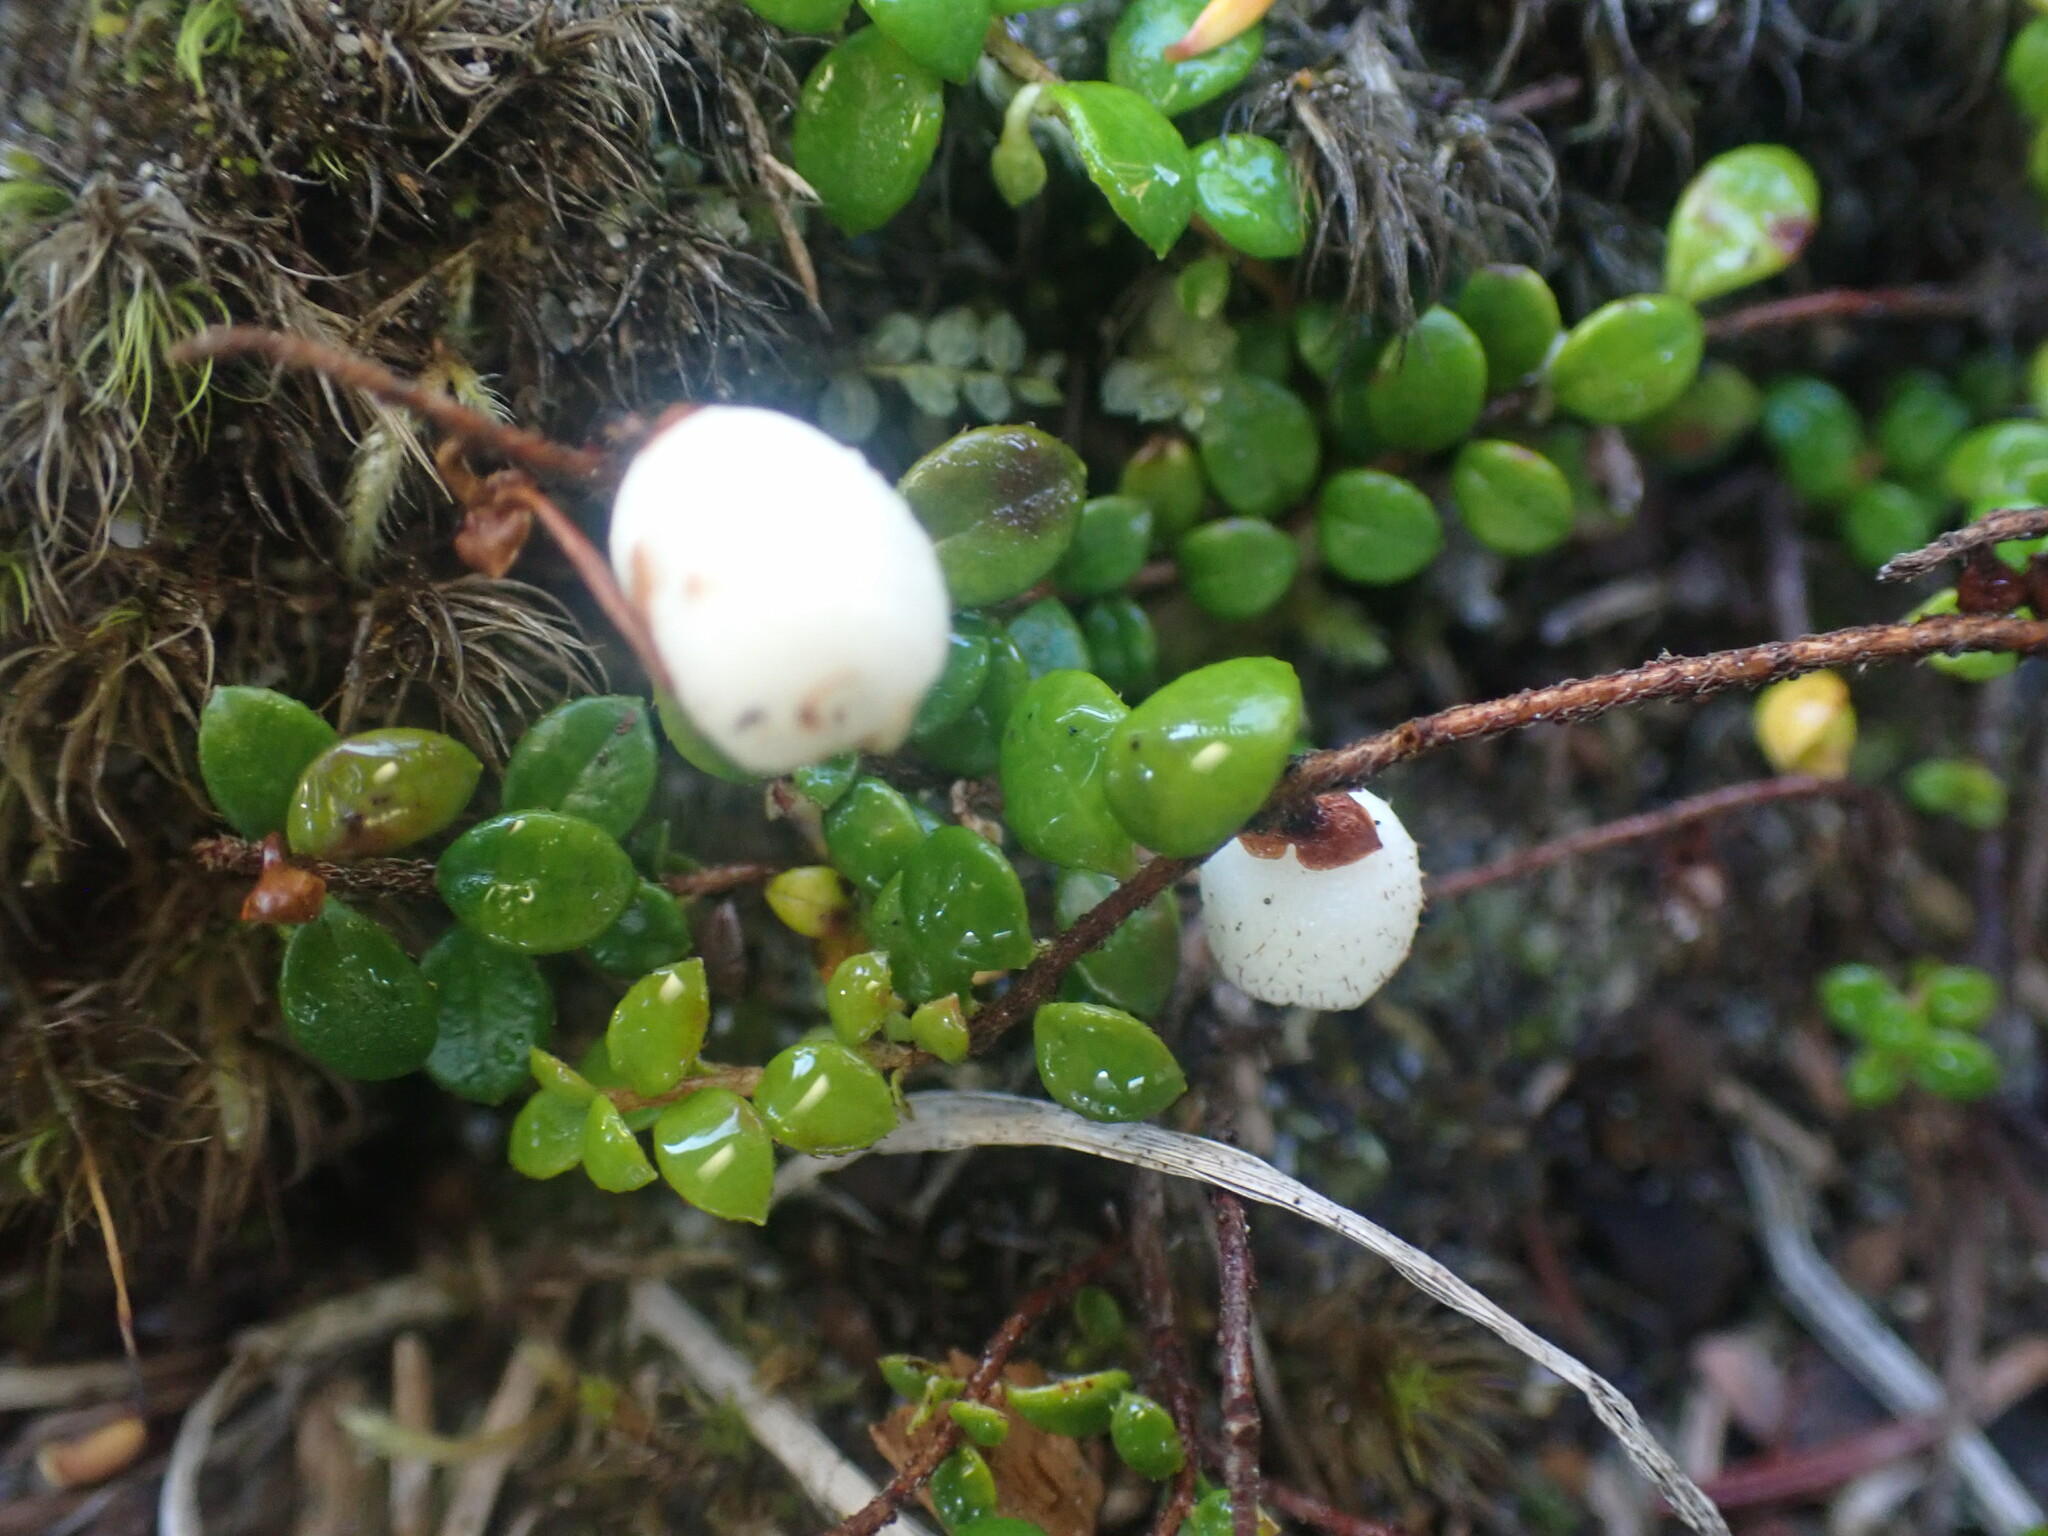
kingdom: Plantae
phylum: Tracheophyta
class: Magnoliopsida
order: Ericales
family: Ericaceae
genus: Gaultheria
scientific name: Gaultheria hispidula
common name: Cancer wintergreen
